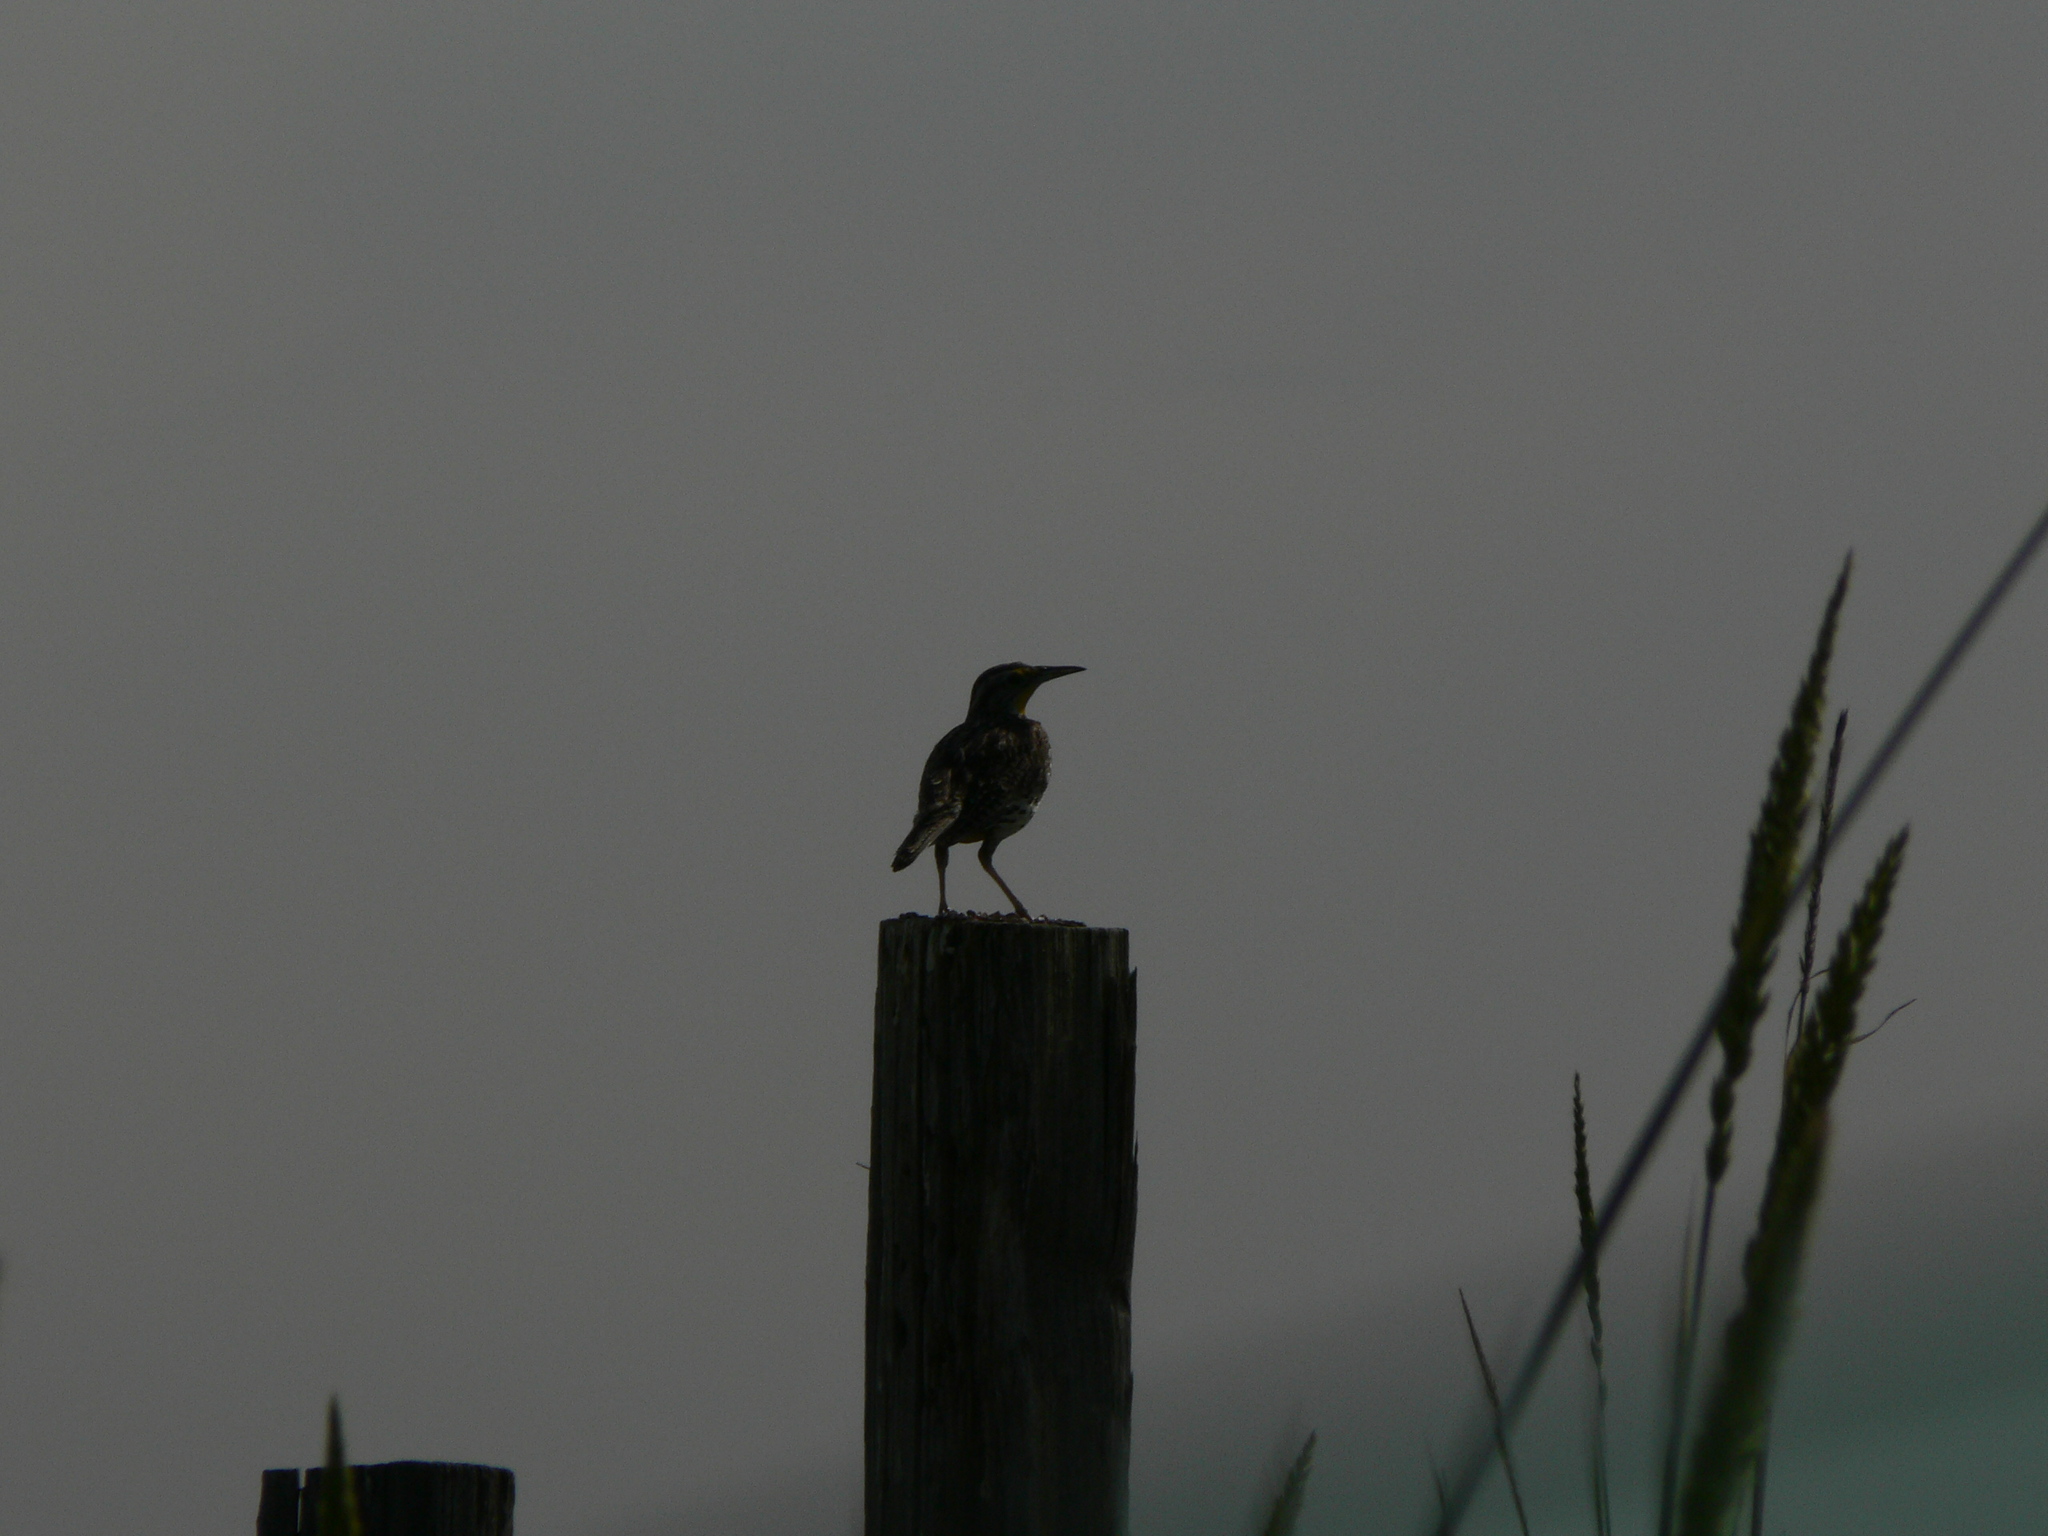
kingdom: Animalia
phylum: Chordata
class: Aves
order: Passeriformes
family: Icteridae
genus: Sturnella
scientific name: Sturnella neglecta
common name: Western meadowlark
